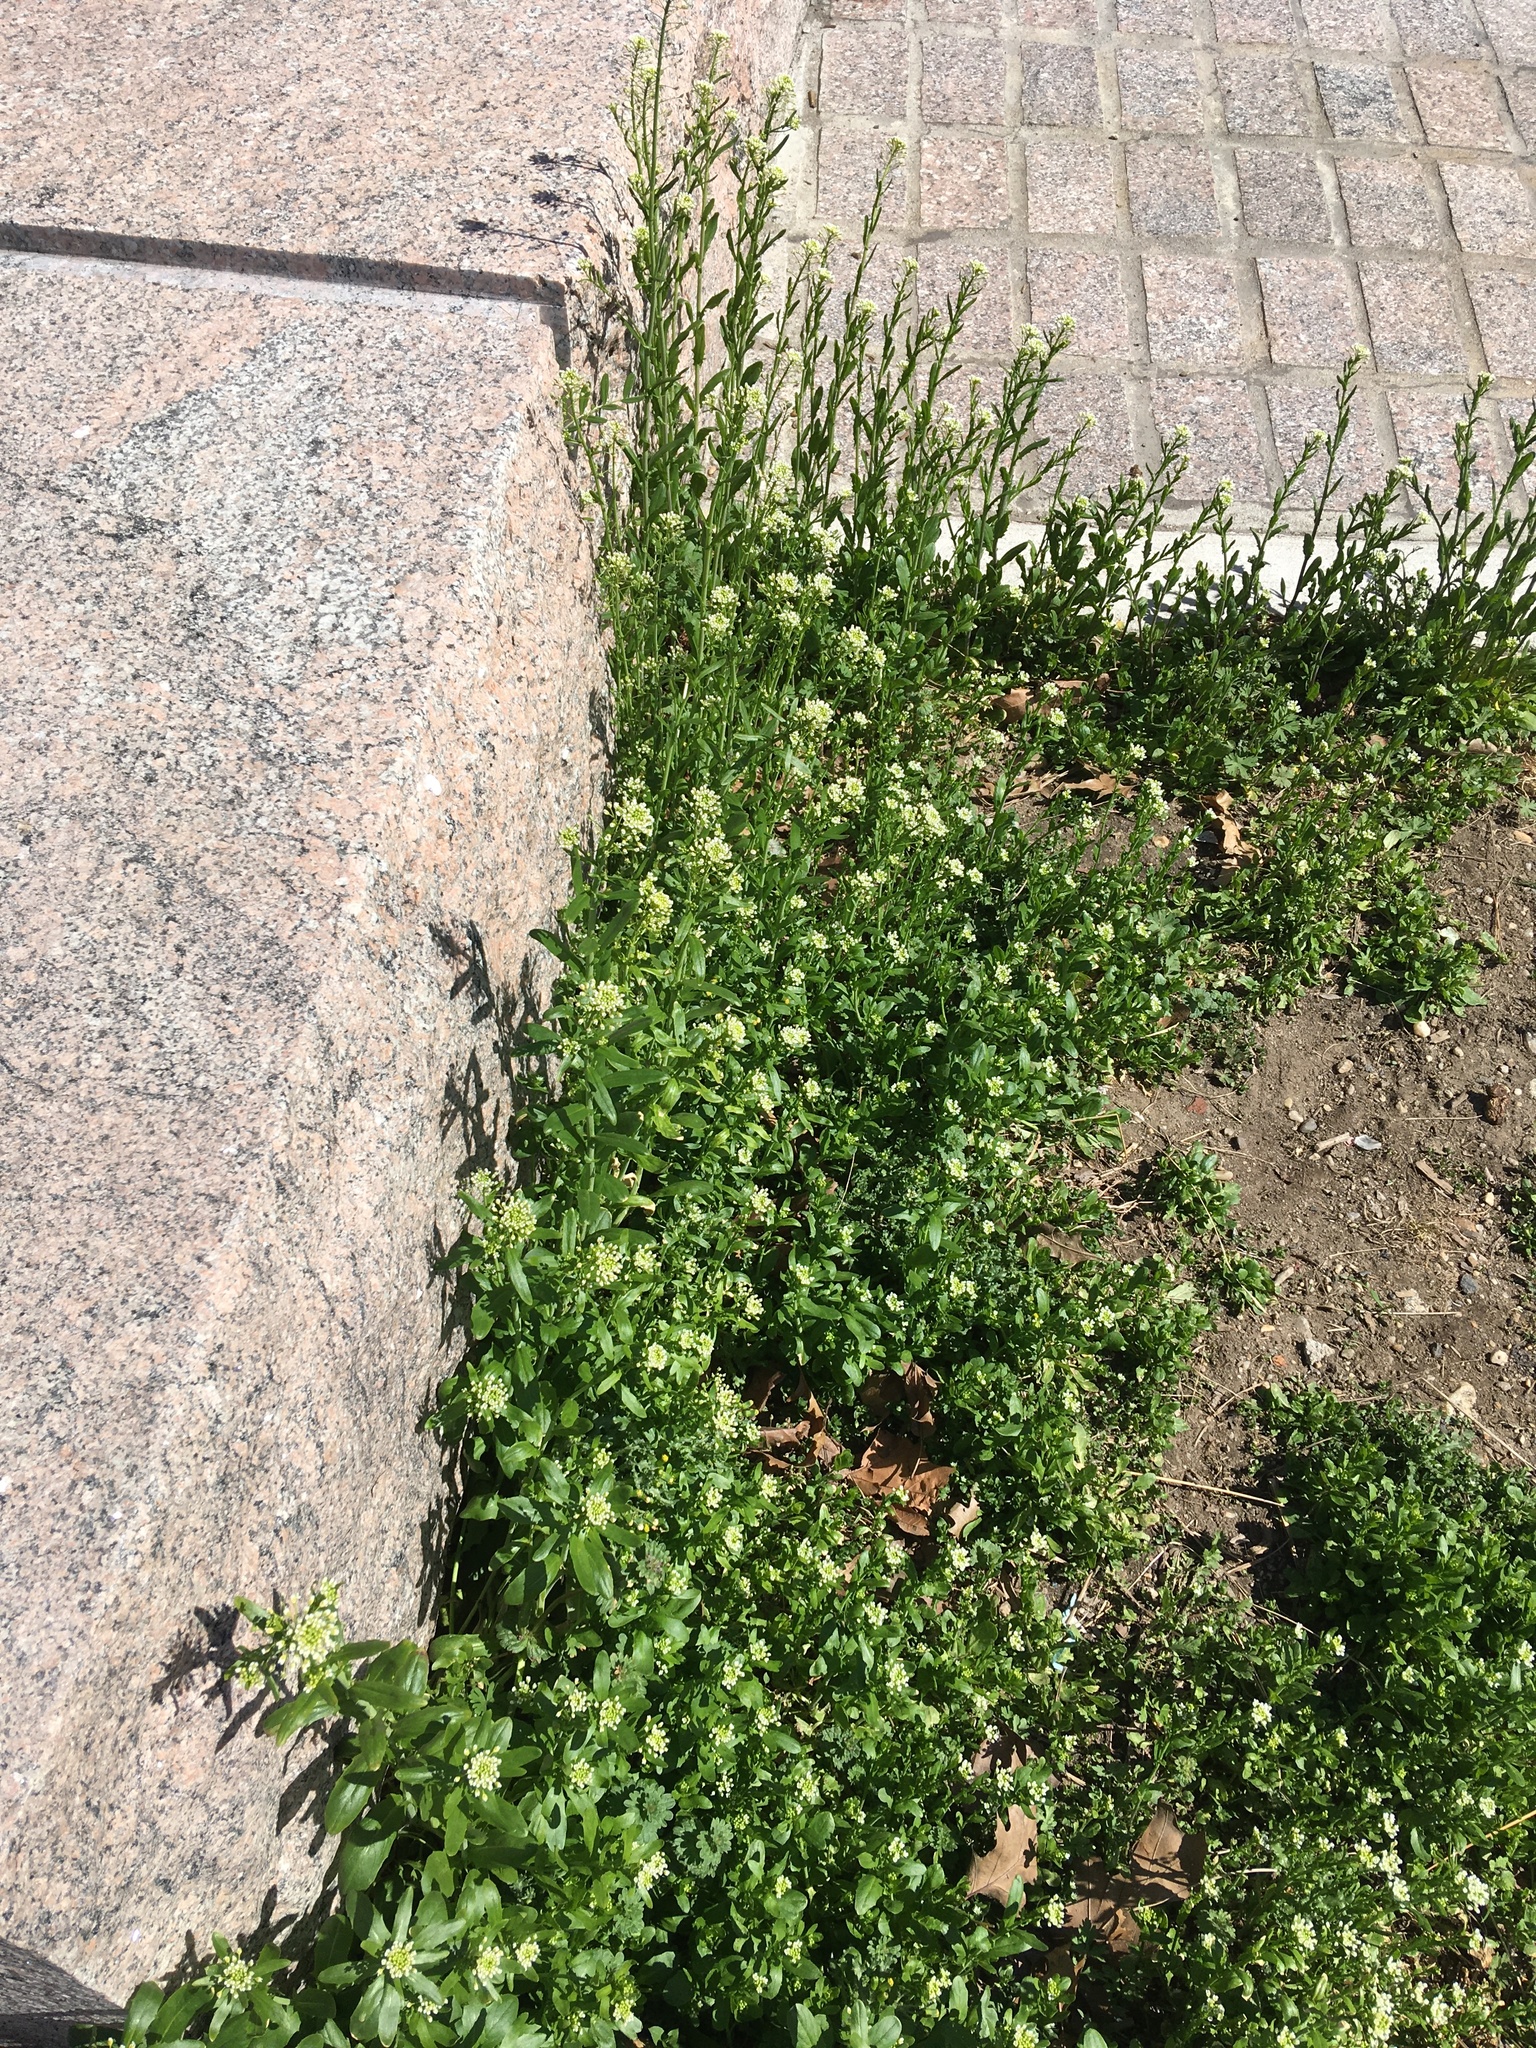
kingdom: Plantae
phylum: Tracheophyta
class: Magnoliopsida
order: Brassicales
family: Brassicaceae
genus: Mummenhoffia
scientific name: Mummenhoffia alliacea
